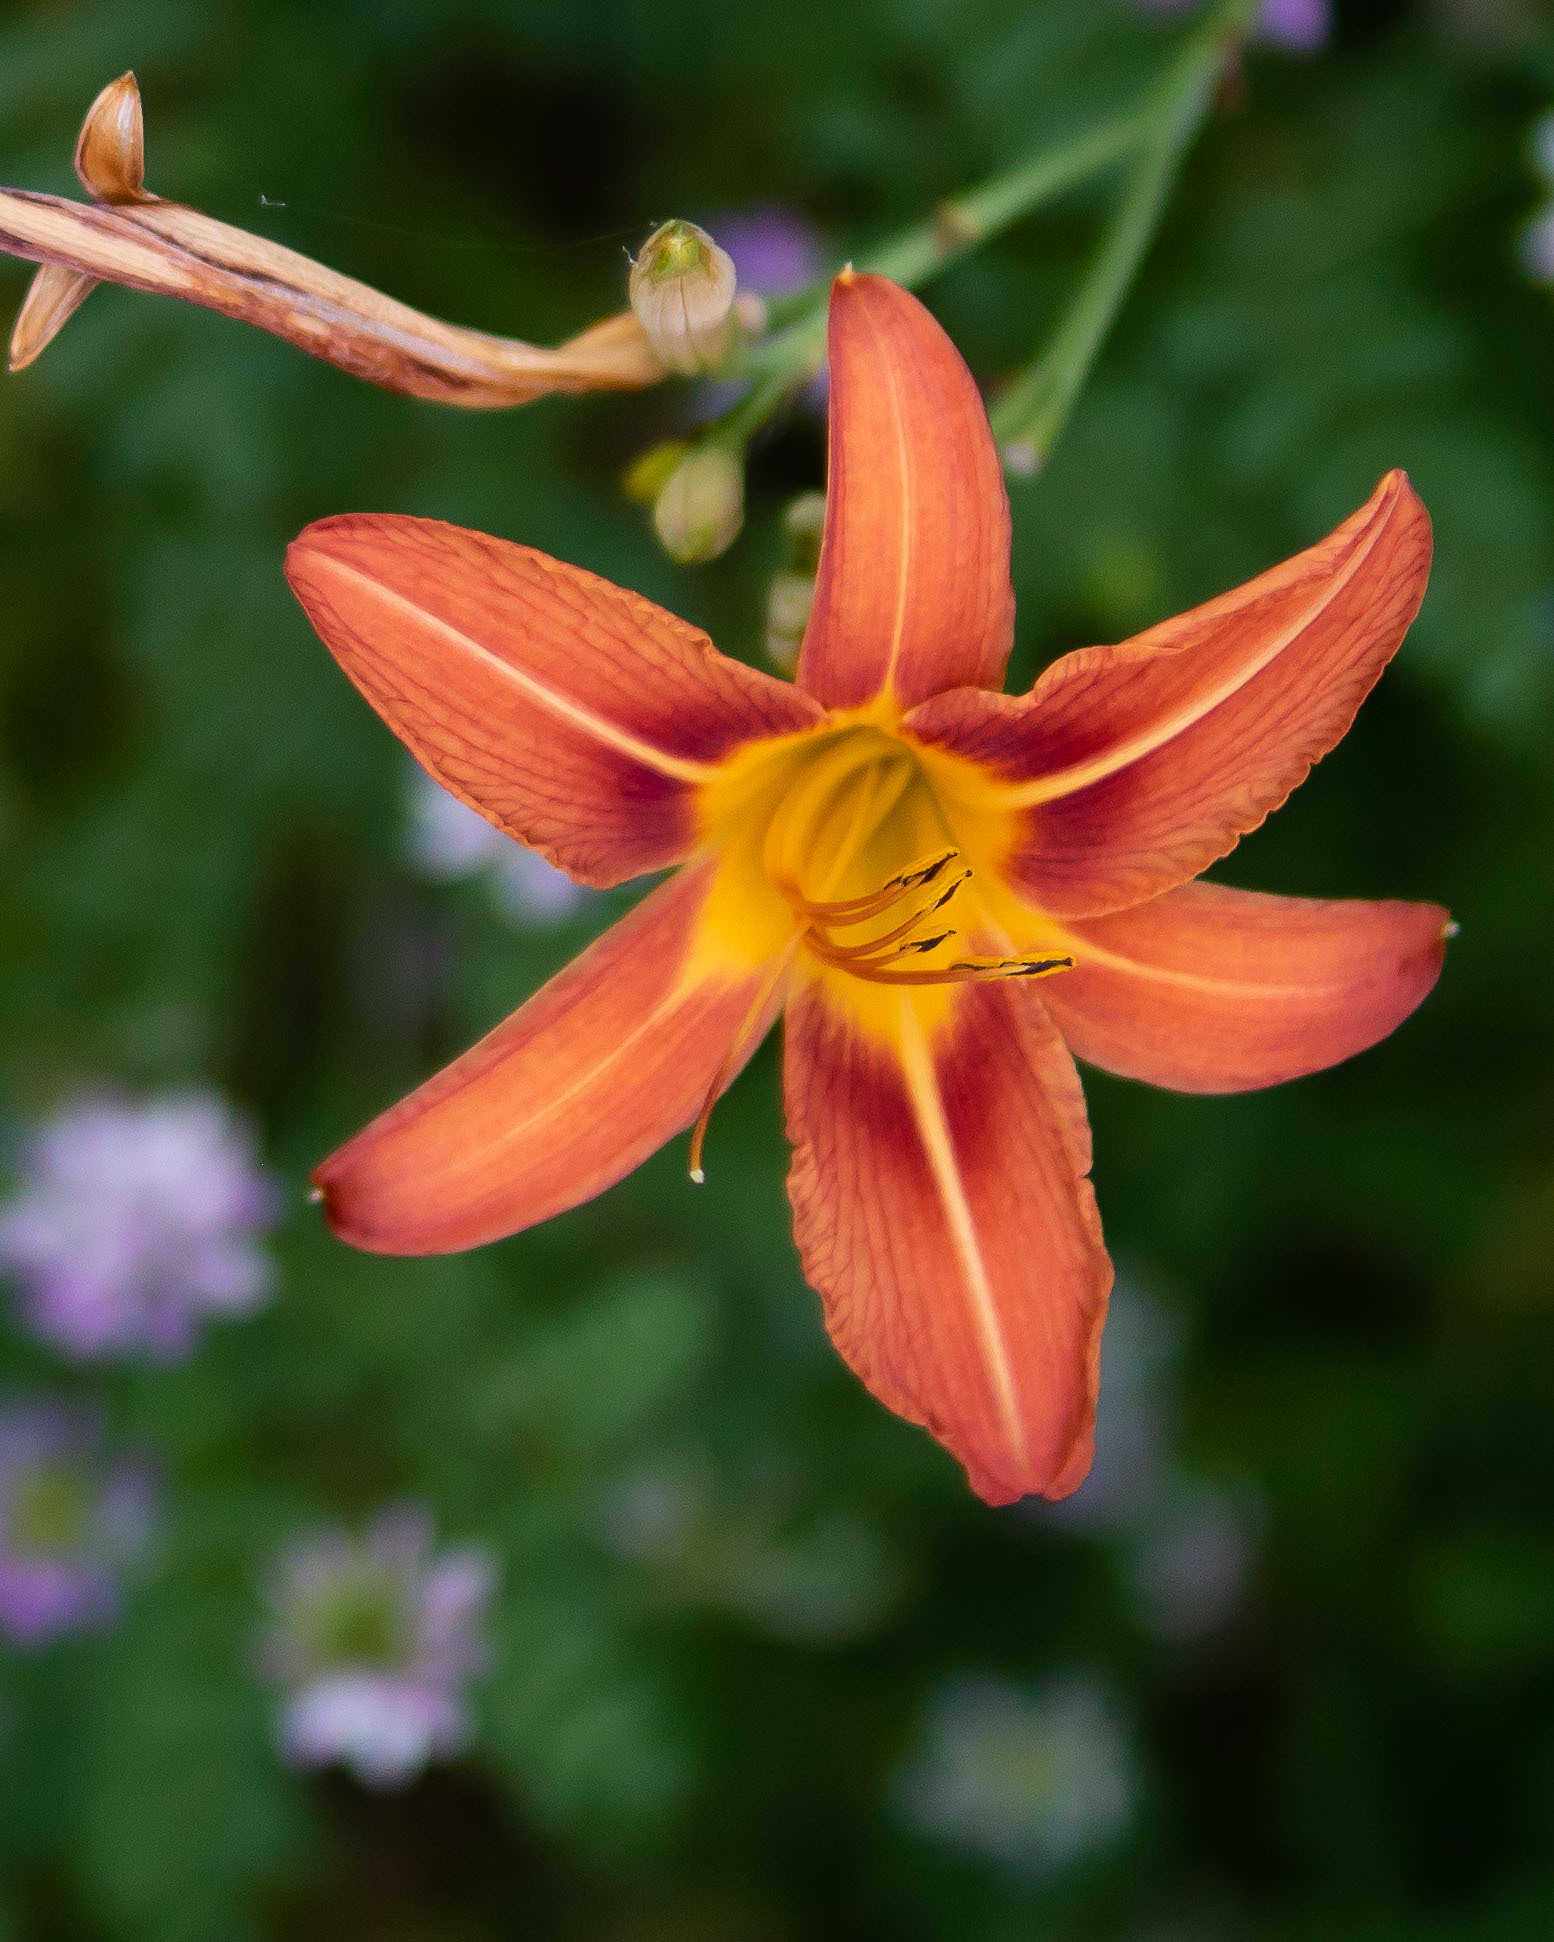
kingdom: Plantae
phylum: Tracheophyta
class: Liliopsida
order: Asparagales
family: Asphodelaceae
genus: Hemerocallis
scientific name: Hemerocallis fulva
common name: Orange day-lily
